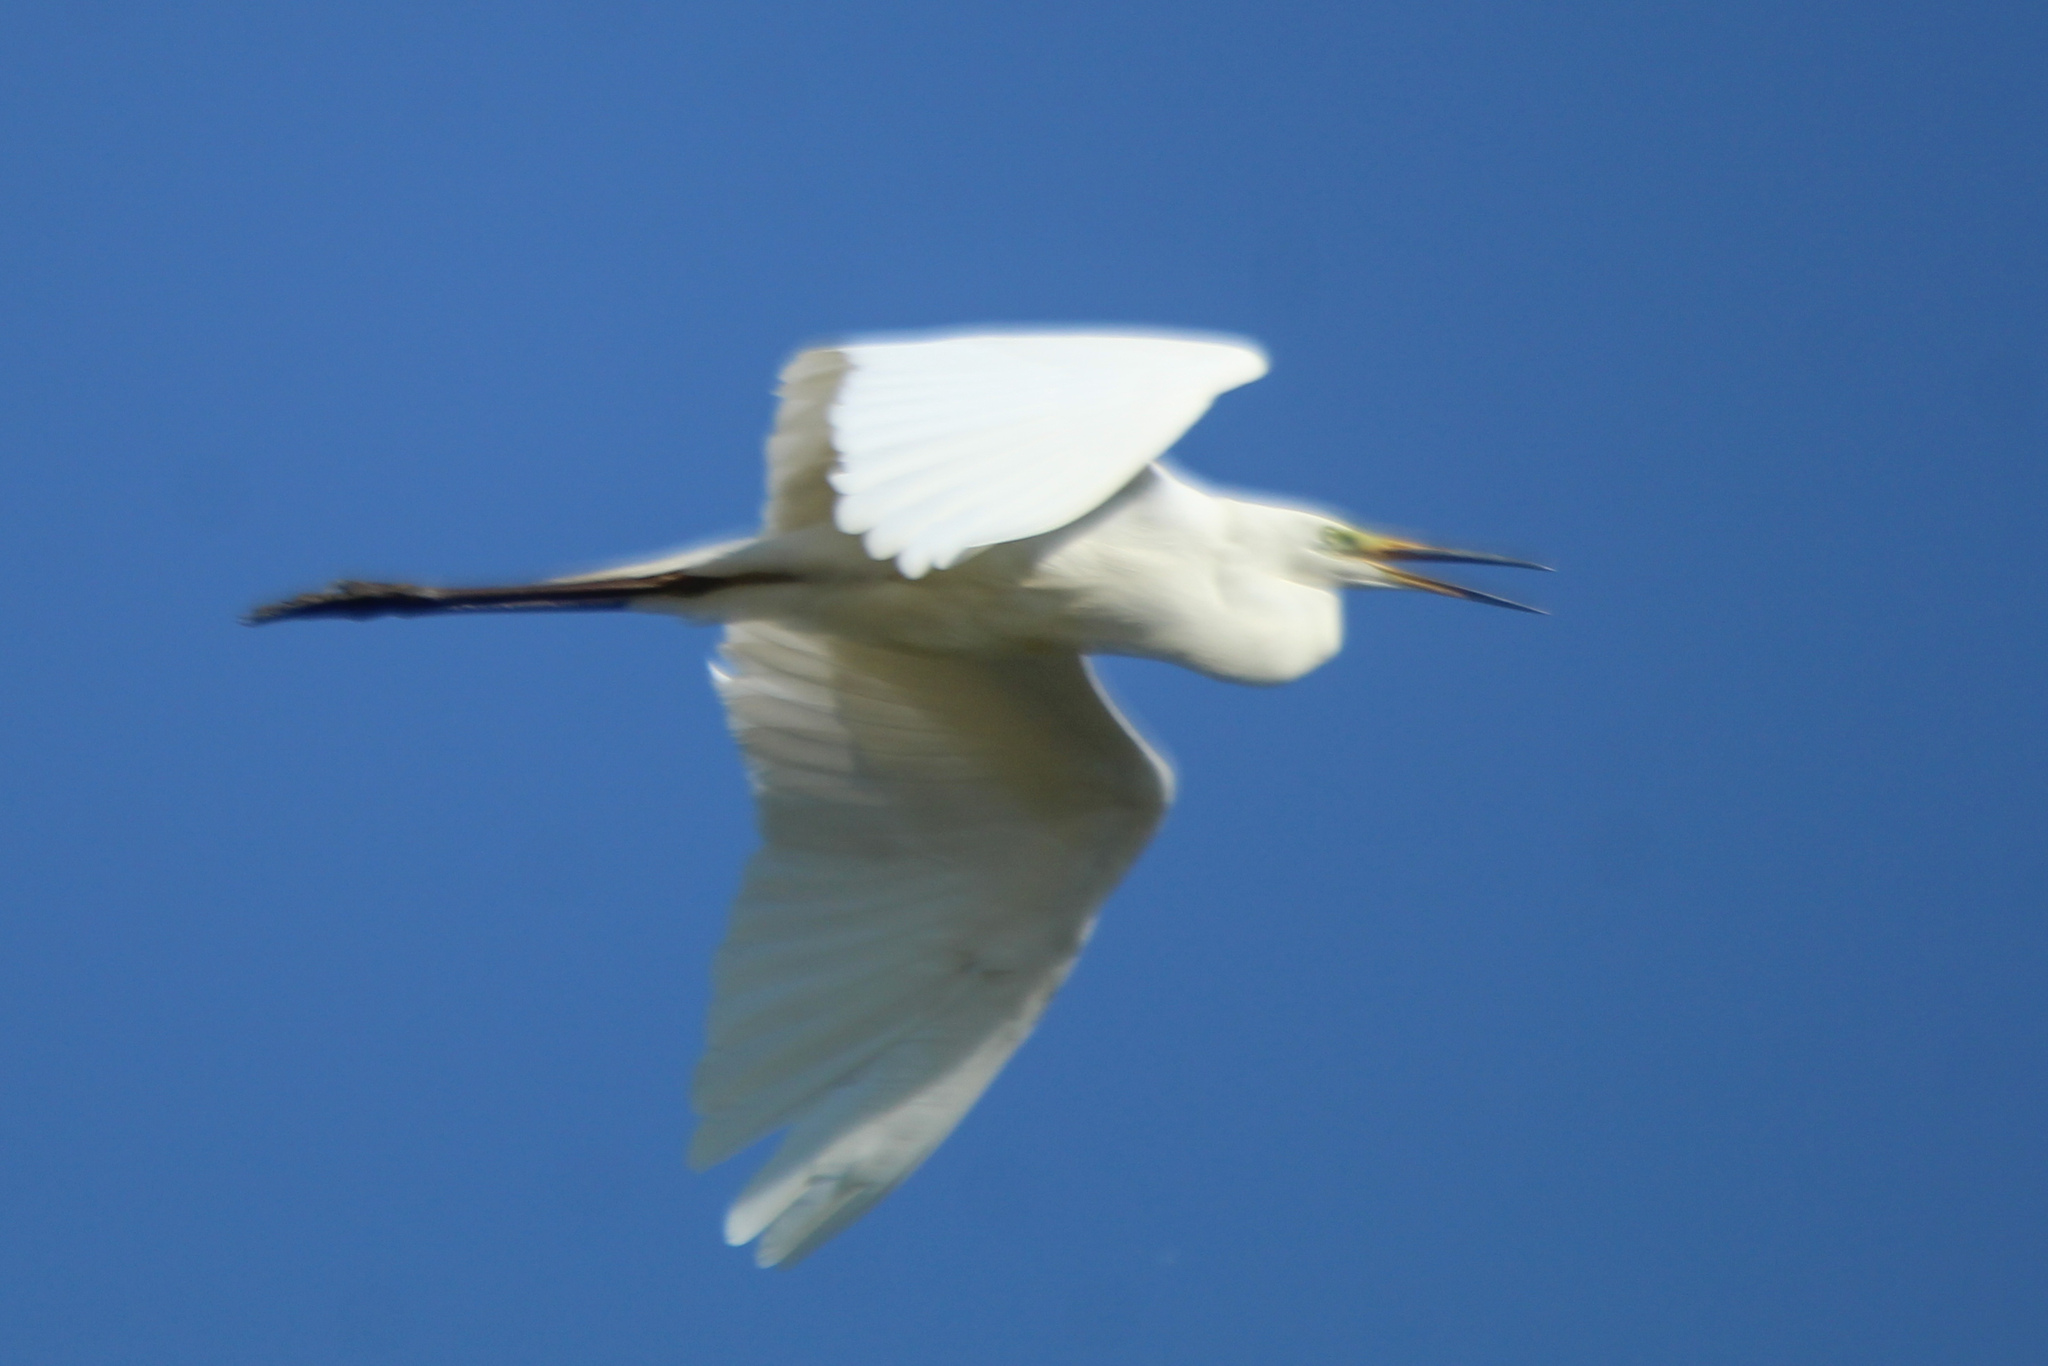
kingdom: Animalia
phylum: Chordata
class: Aves
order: Pelecaniformes
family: Ardeidae
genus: Ardea
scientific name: Ardea alba
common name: Great egret
